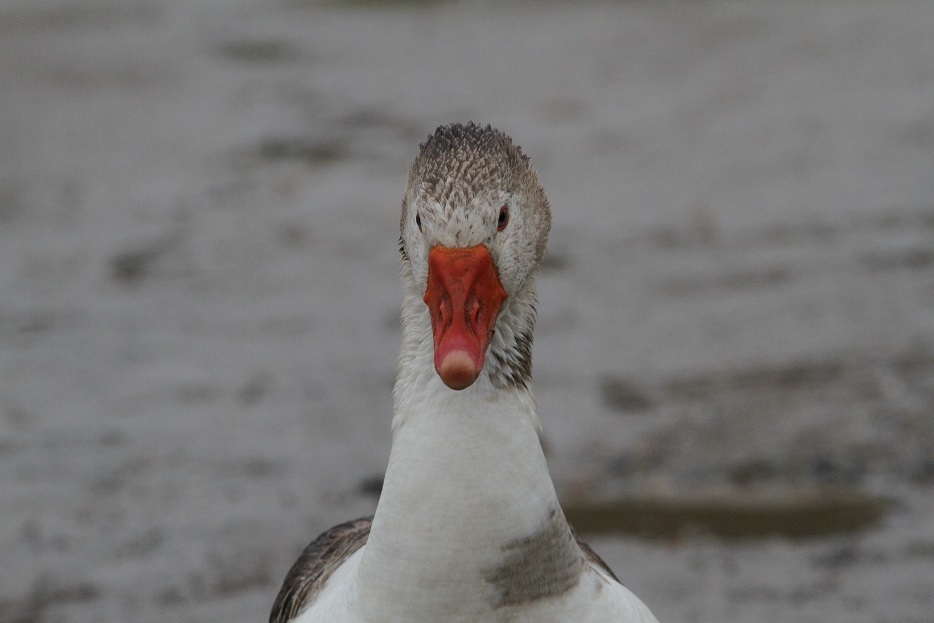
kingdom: Animalia
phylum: Chordata
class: Aves
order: Anseriformes
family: Anatidae
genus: Anser
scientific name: Anser anser
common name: Greylag goose
